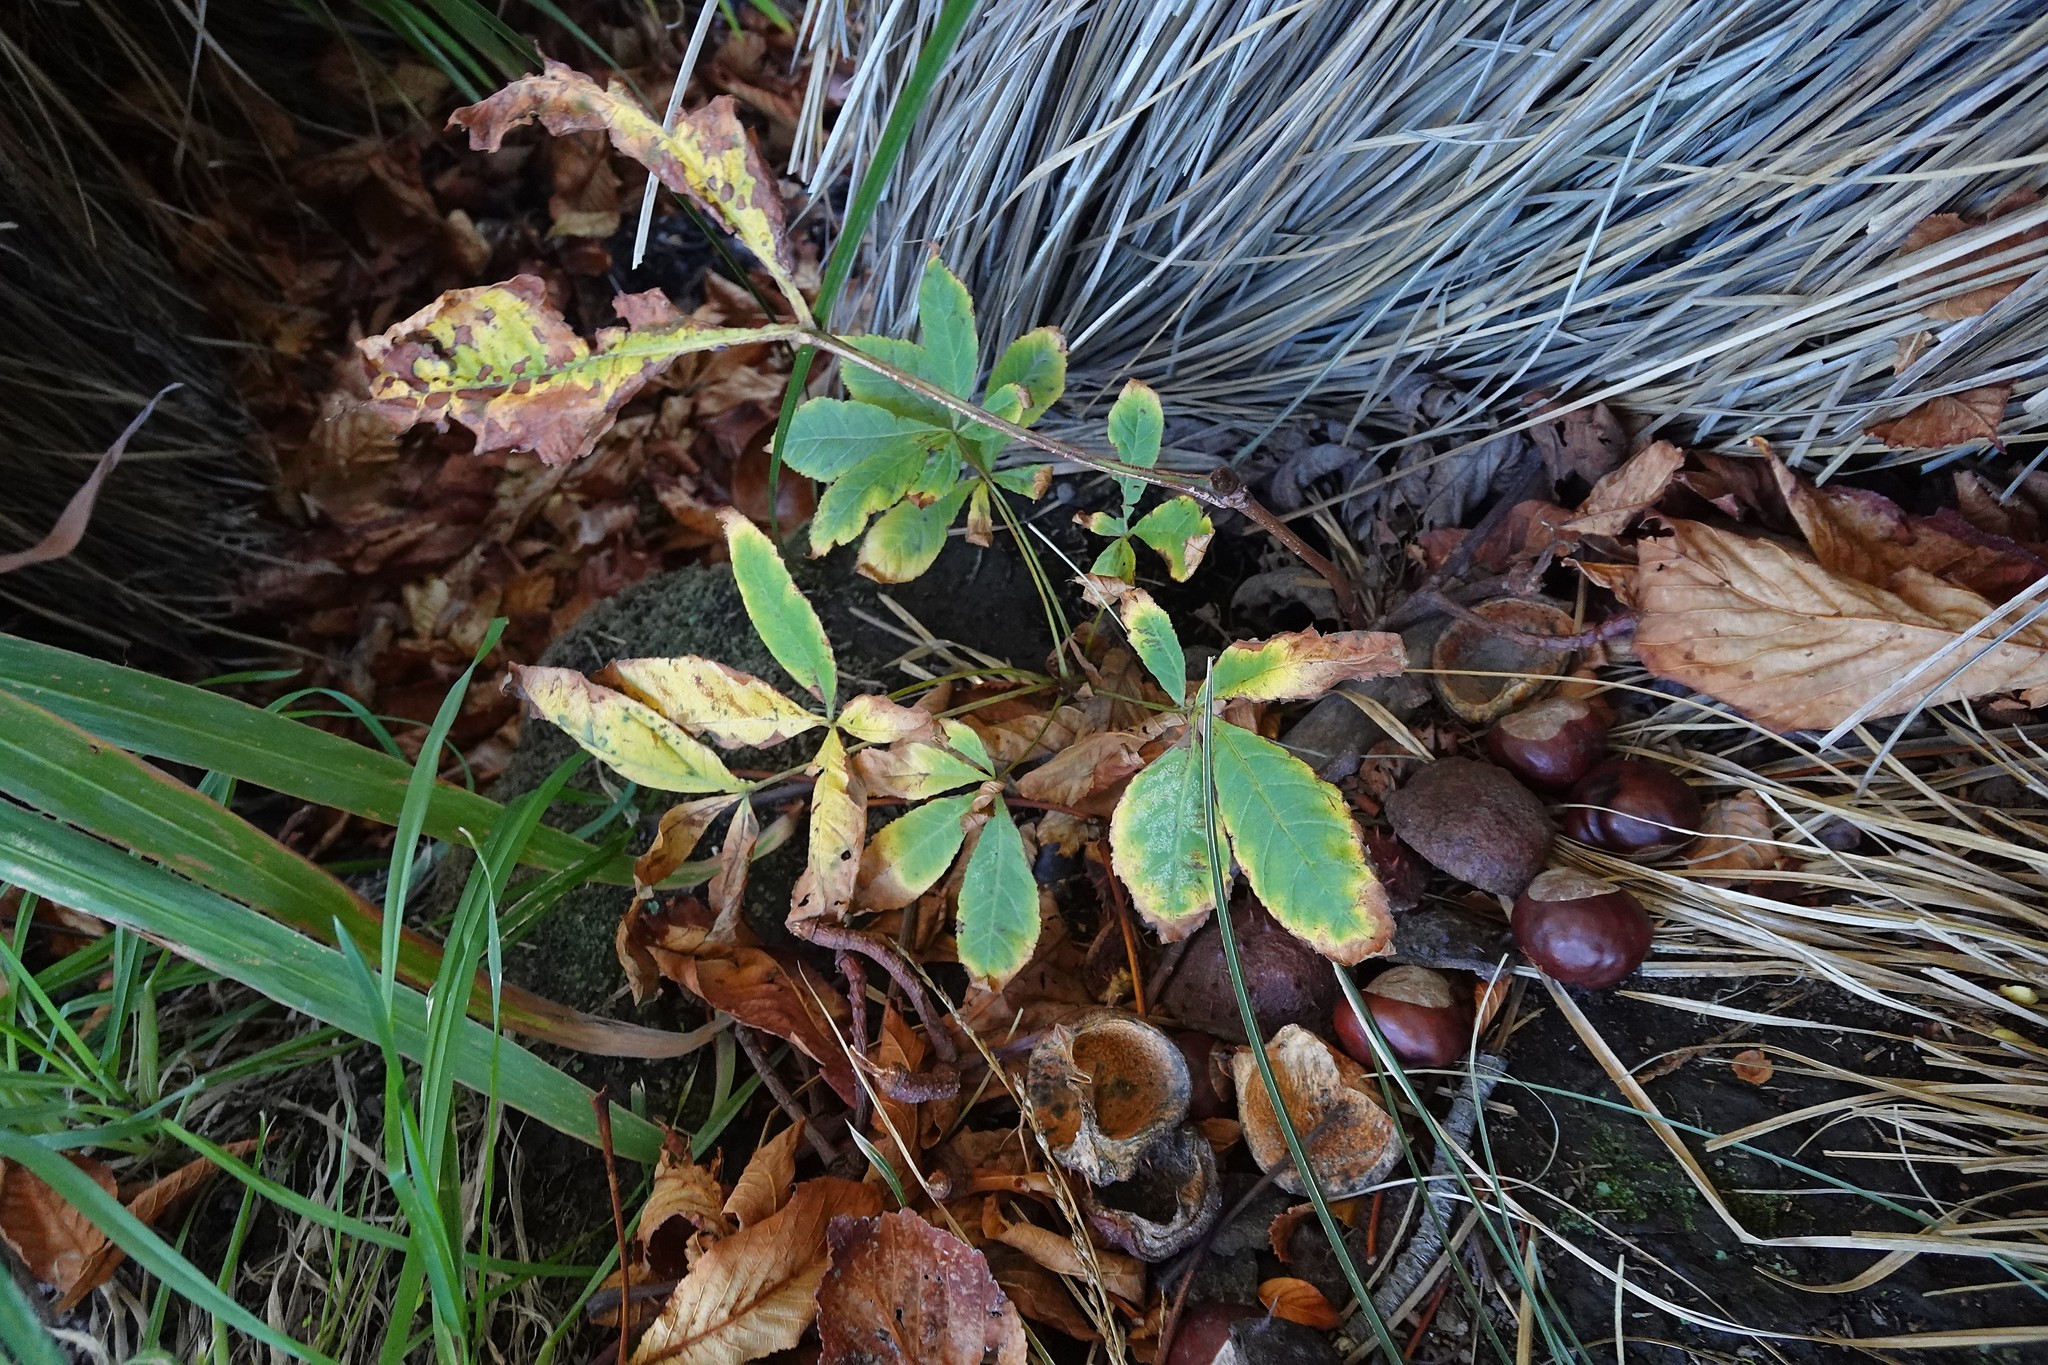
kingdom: Plantae
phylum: Tracheophyta
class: Magnoliopsida
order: Sapindales
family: Sapindaceae
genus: Aesculus
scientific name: Aesculus hippocastanum
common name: Horse-chestnut
